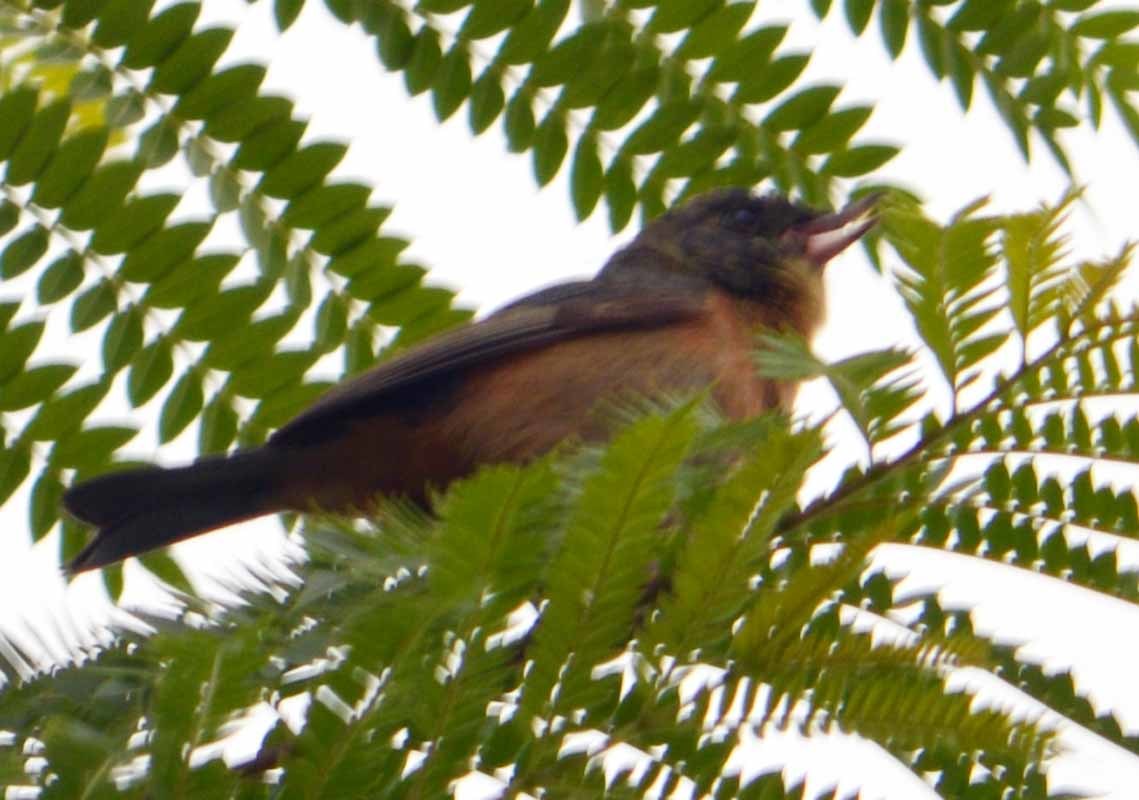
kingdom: Animalia
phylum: Chordata
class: Aves
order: Passeriformes
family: Thraupidae
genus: Diglossa
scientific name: Diglossa baritula
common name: Cinnamon-bellied flowerpiercer
